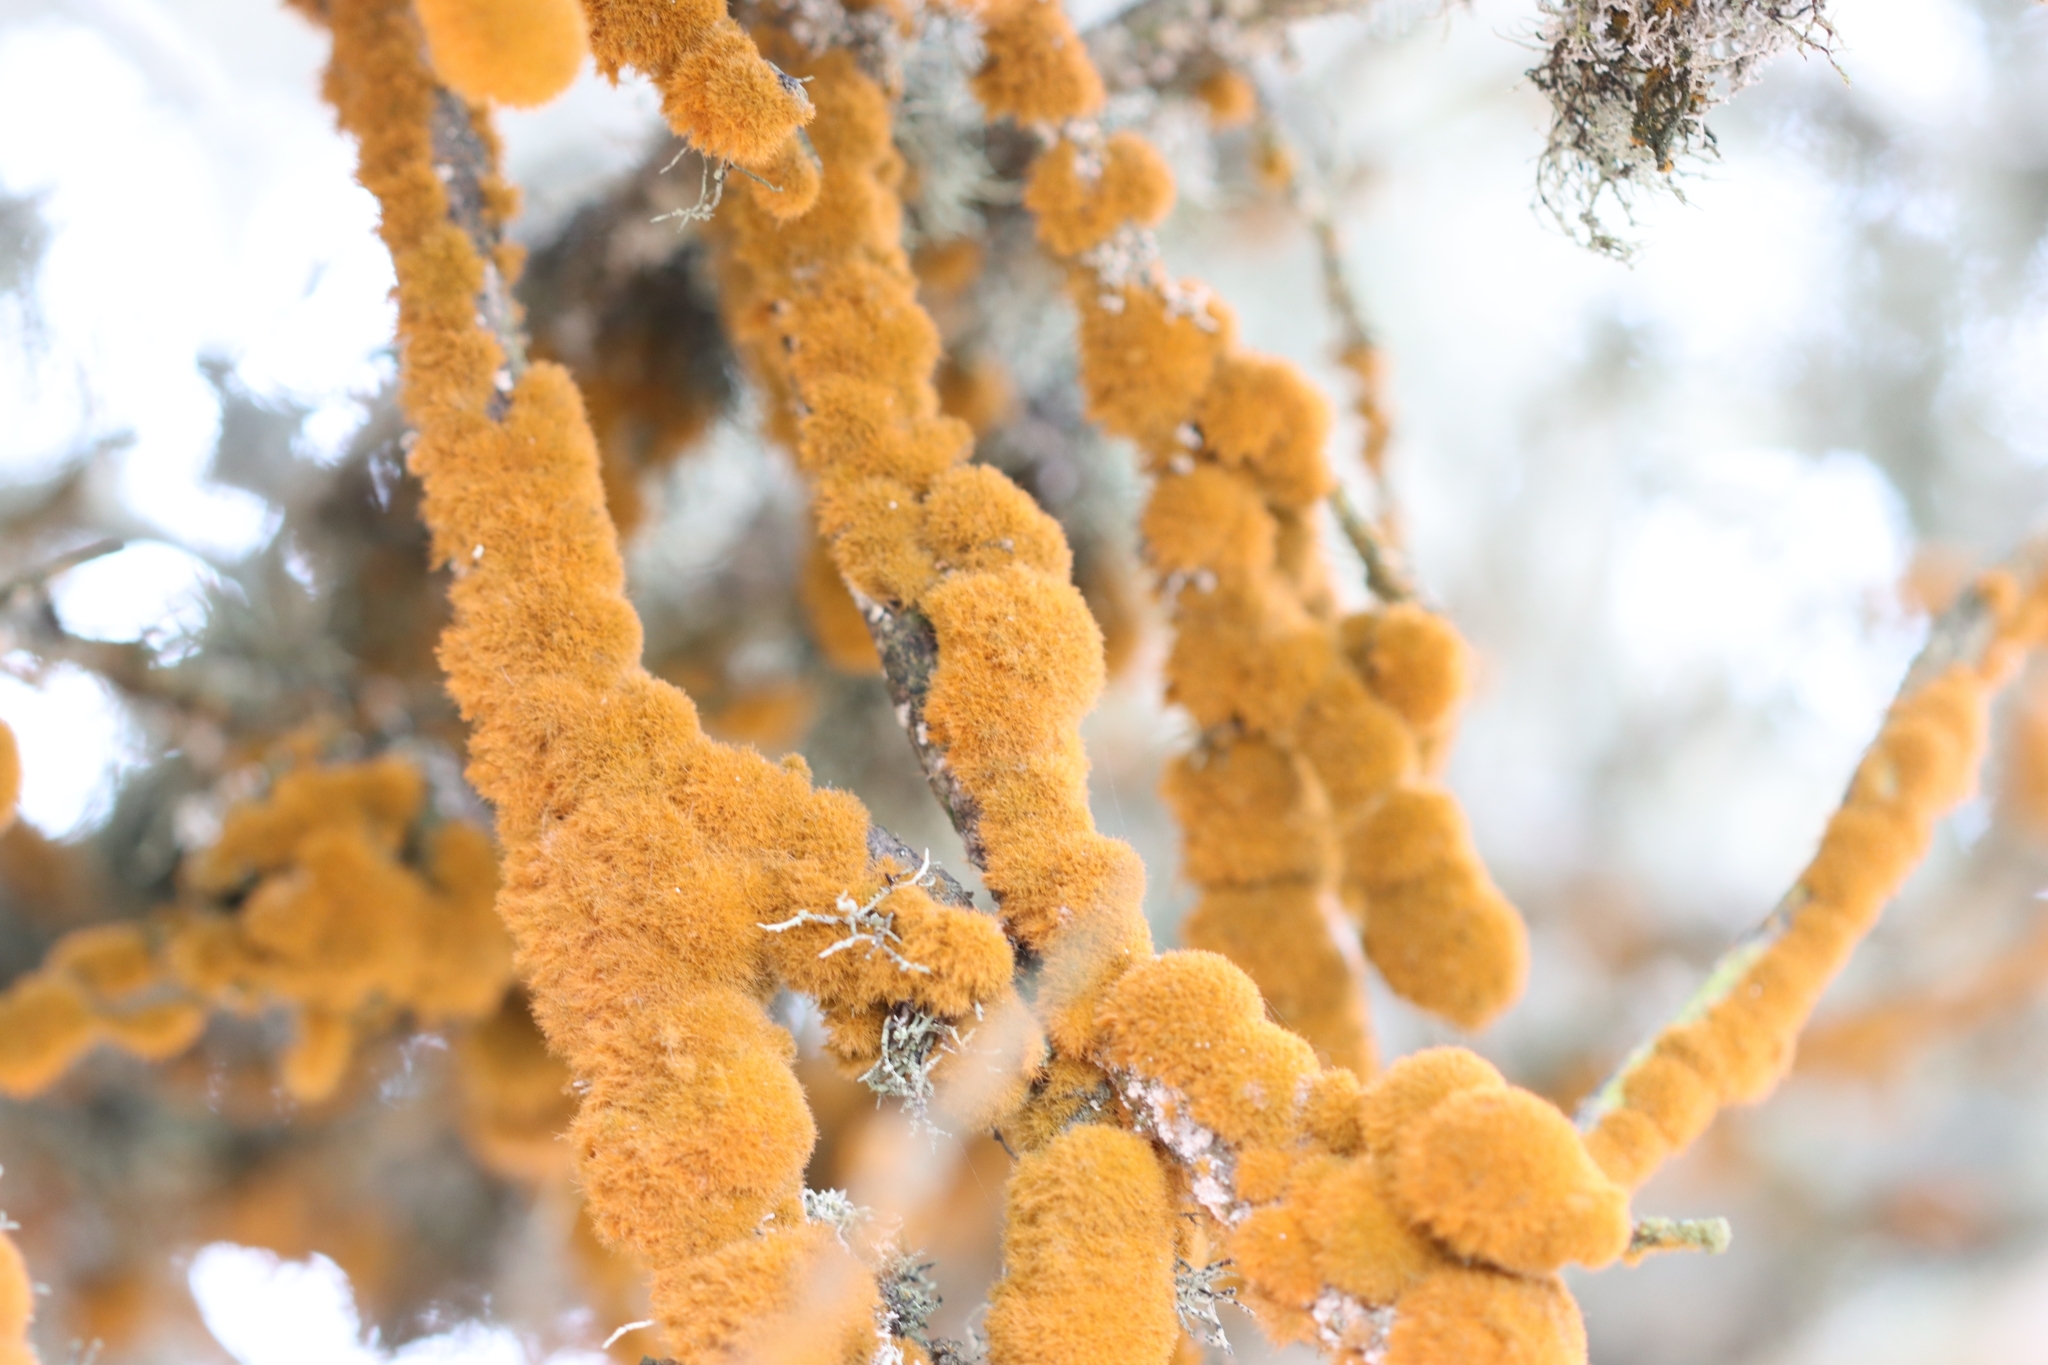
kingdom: Plantae
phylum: Chlorophyta
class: Ulvophyceae
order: Trentepohliales
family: Trentepohliaceae
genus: Trentepohlia
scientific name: Trentepohlia aurea
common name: Orange rock hair
